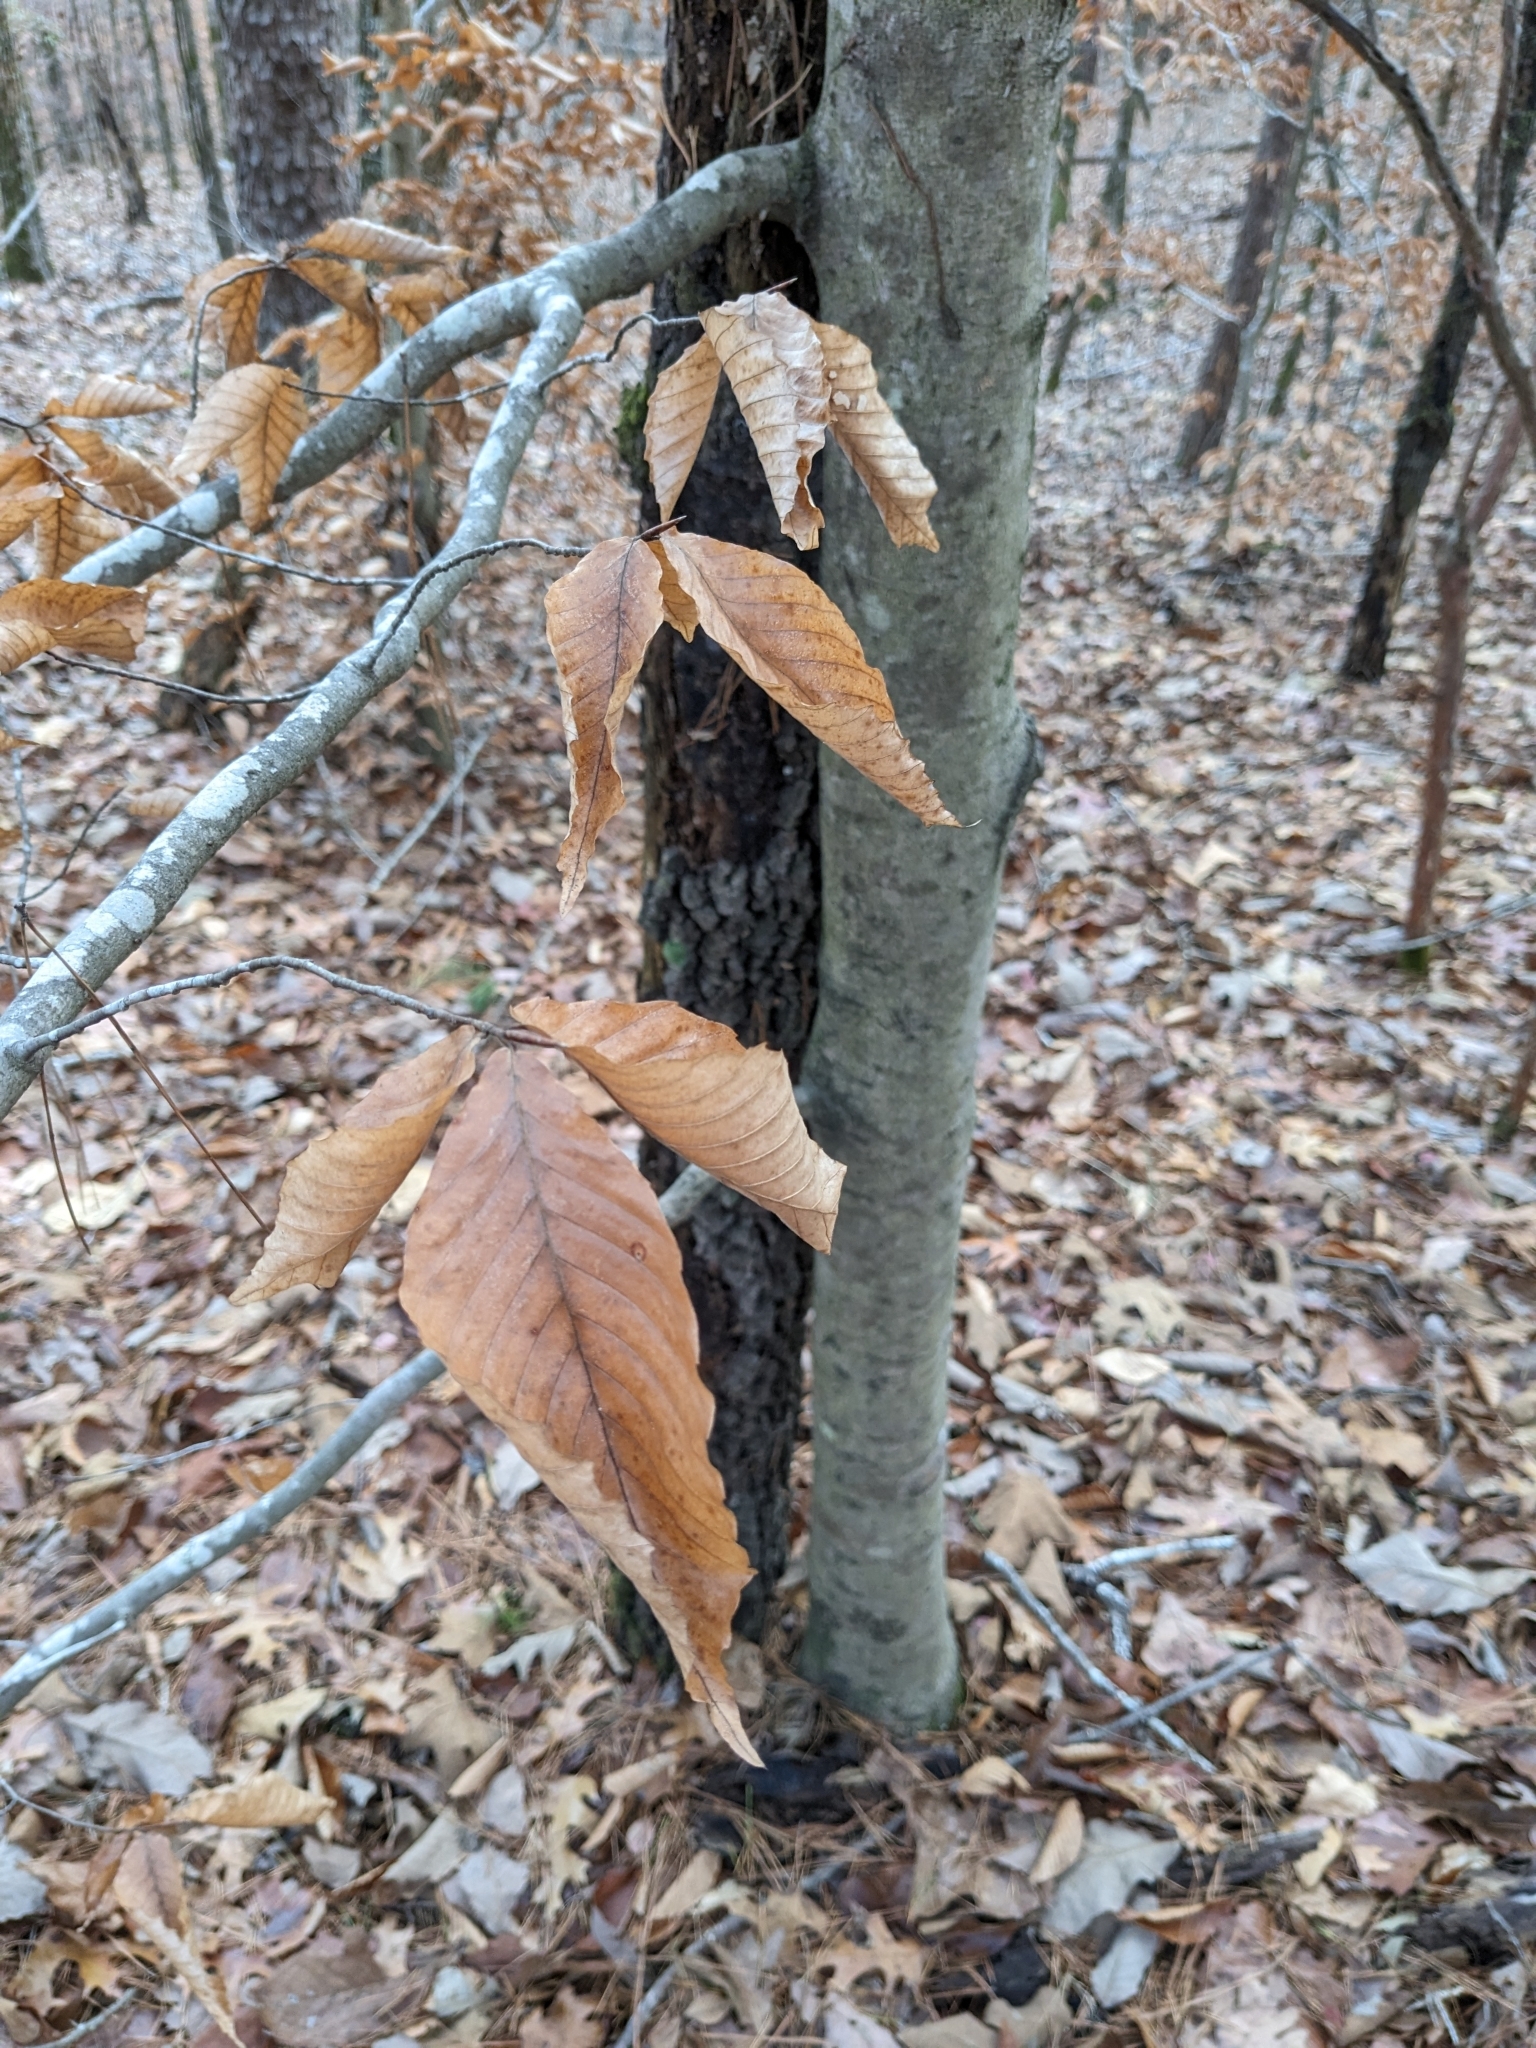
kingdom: Plantae
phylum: Tracheophyta
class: Magnoliopsida
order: Fagales
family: Fagaceae
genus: Fagus
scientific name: Fagus grandifolia
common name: American beech
